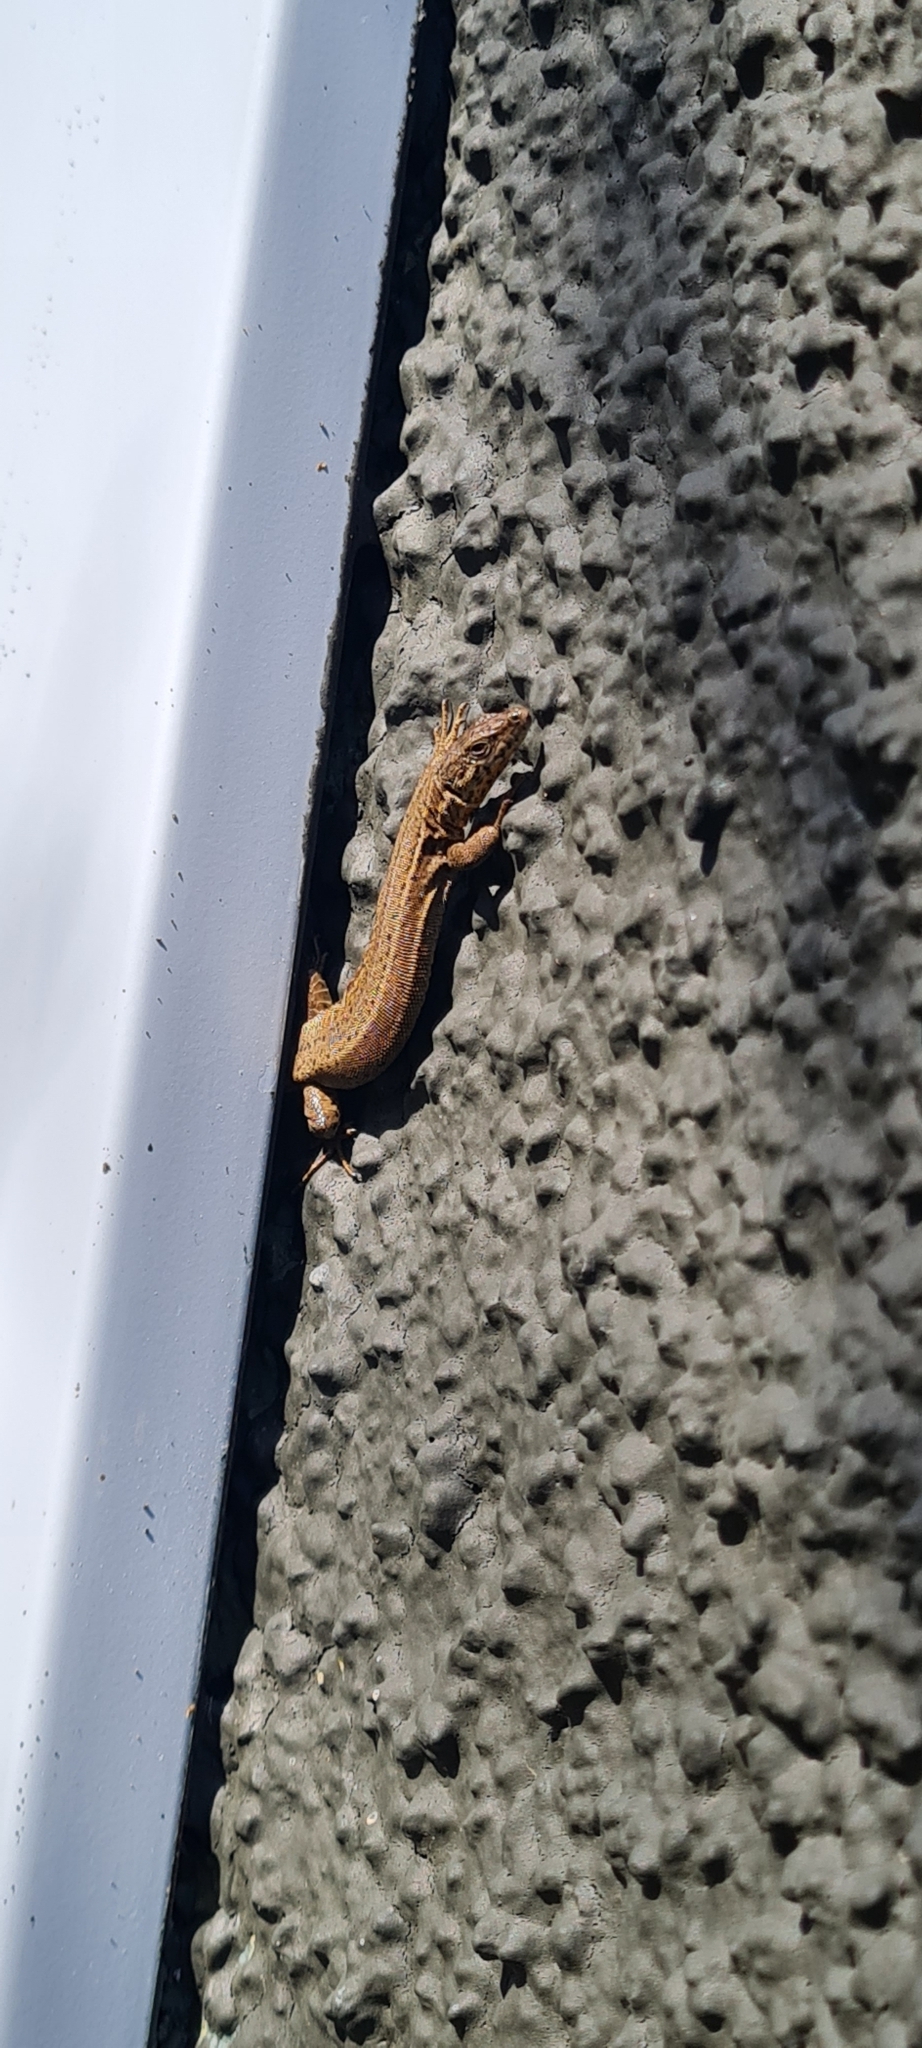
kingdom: Animalia
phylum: Chordata
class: Squamata
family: Lacertidae
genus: Podarcis
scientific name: Podarcis liolepis
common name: Catalonian wall lizard
